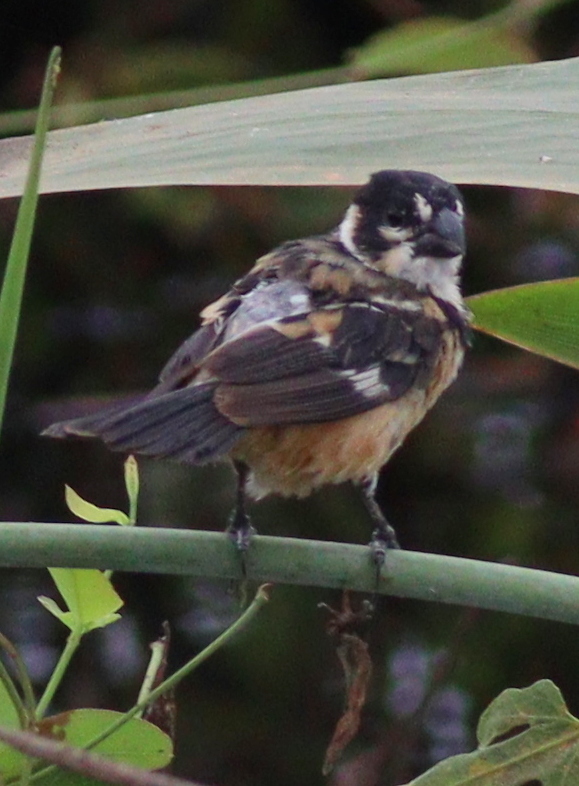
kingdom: Animalia
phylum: Chordata
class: Aves
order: Passeriformes
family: Thraupidae
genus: Sporophila
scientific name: Sporophila collaris
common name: Rusty-collared seedeater
